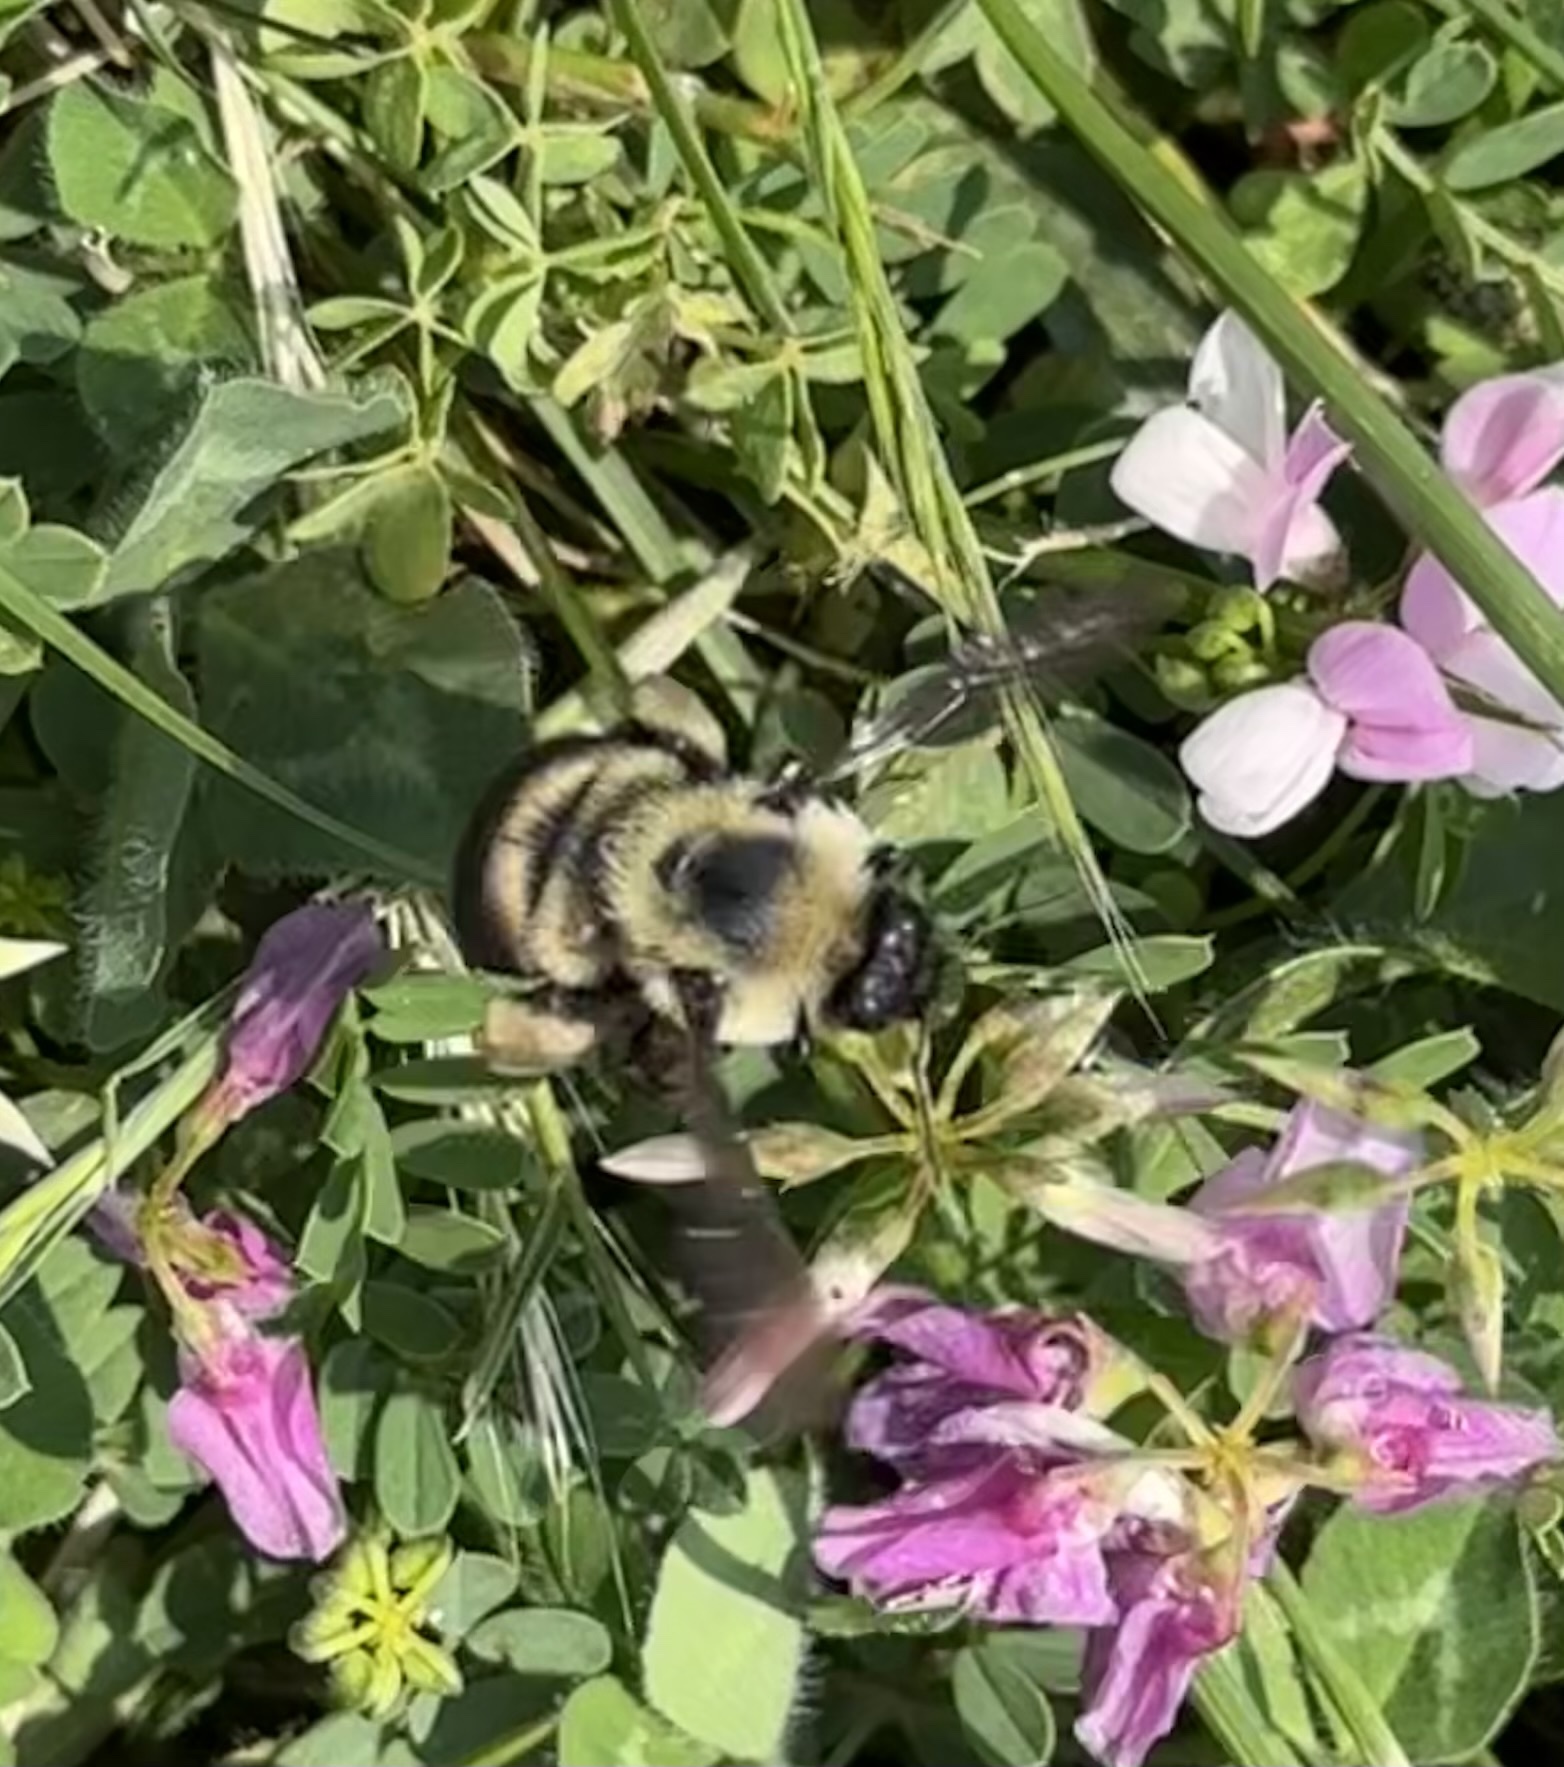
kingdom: Animalia
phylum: Arthropoda
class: Insecta
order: Hymenoptera
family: Apidae
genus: Bombus
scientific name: Bombus griseocollis
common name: Brown-belted bumble bee
